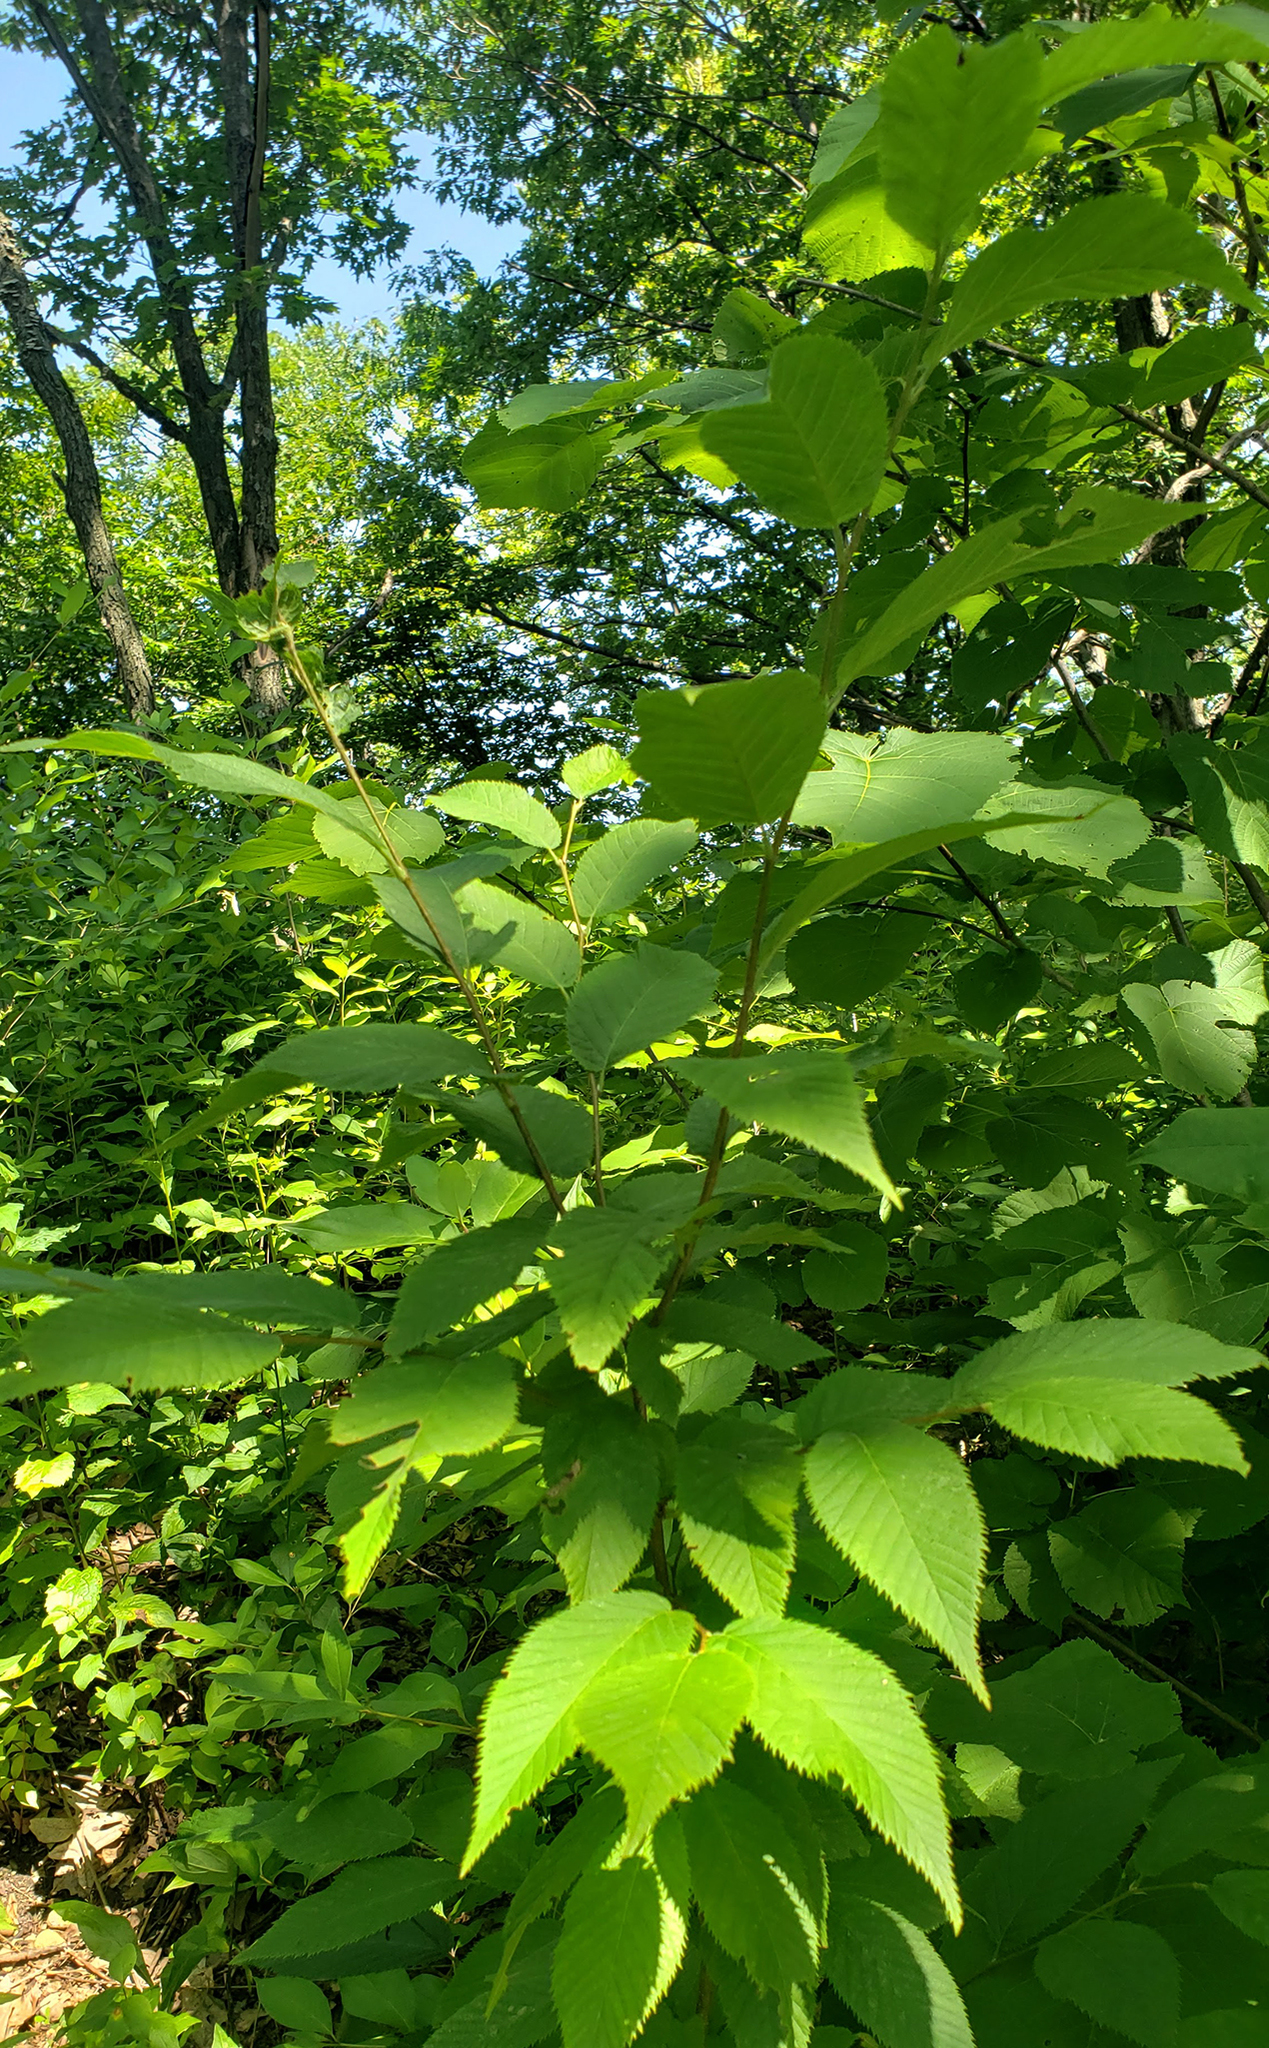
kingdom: Plantae
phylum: Tracheophyta
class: Magnoliopsida
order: Fagales
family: Betulaceae
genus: Ostrya
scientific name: Ostrya virginiana
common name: Ironwood
